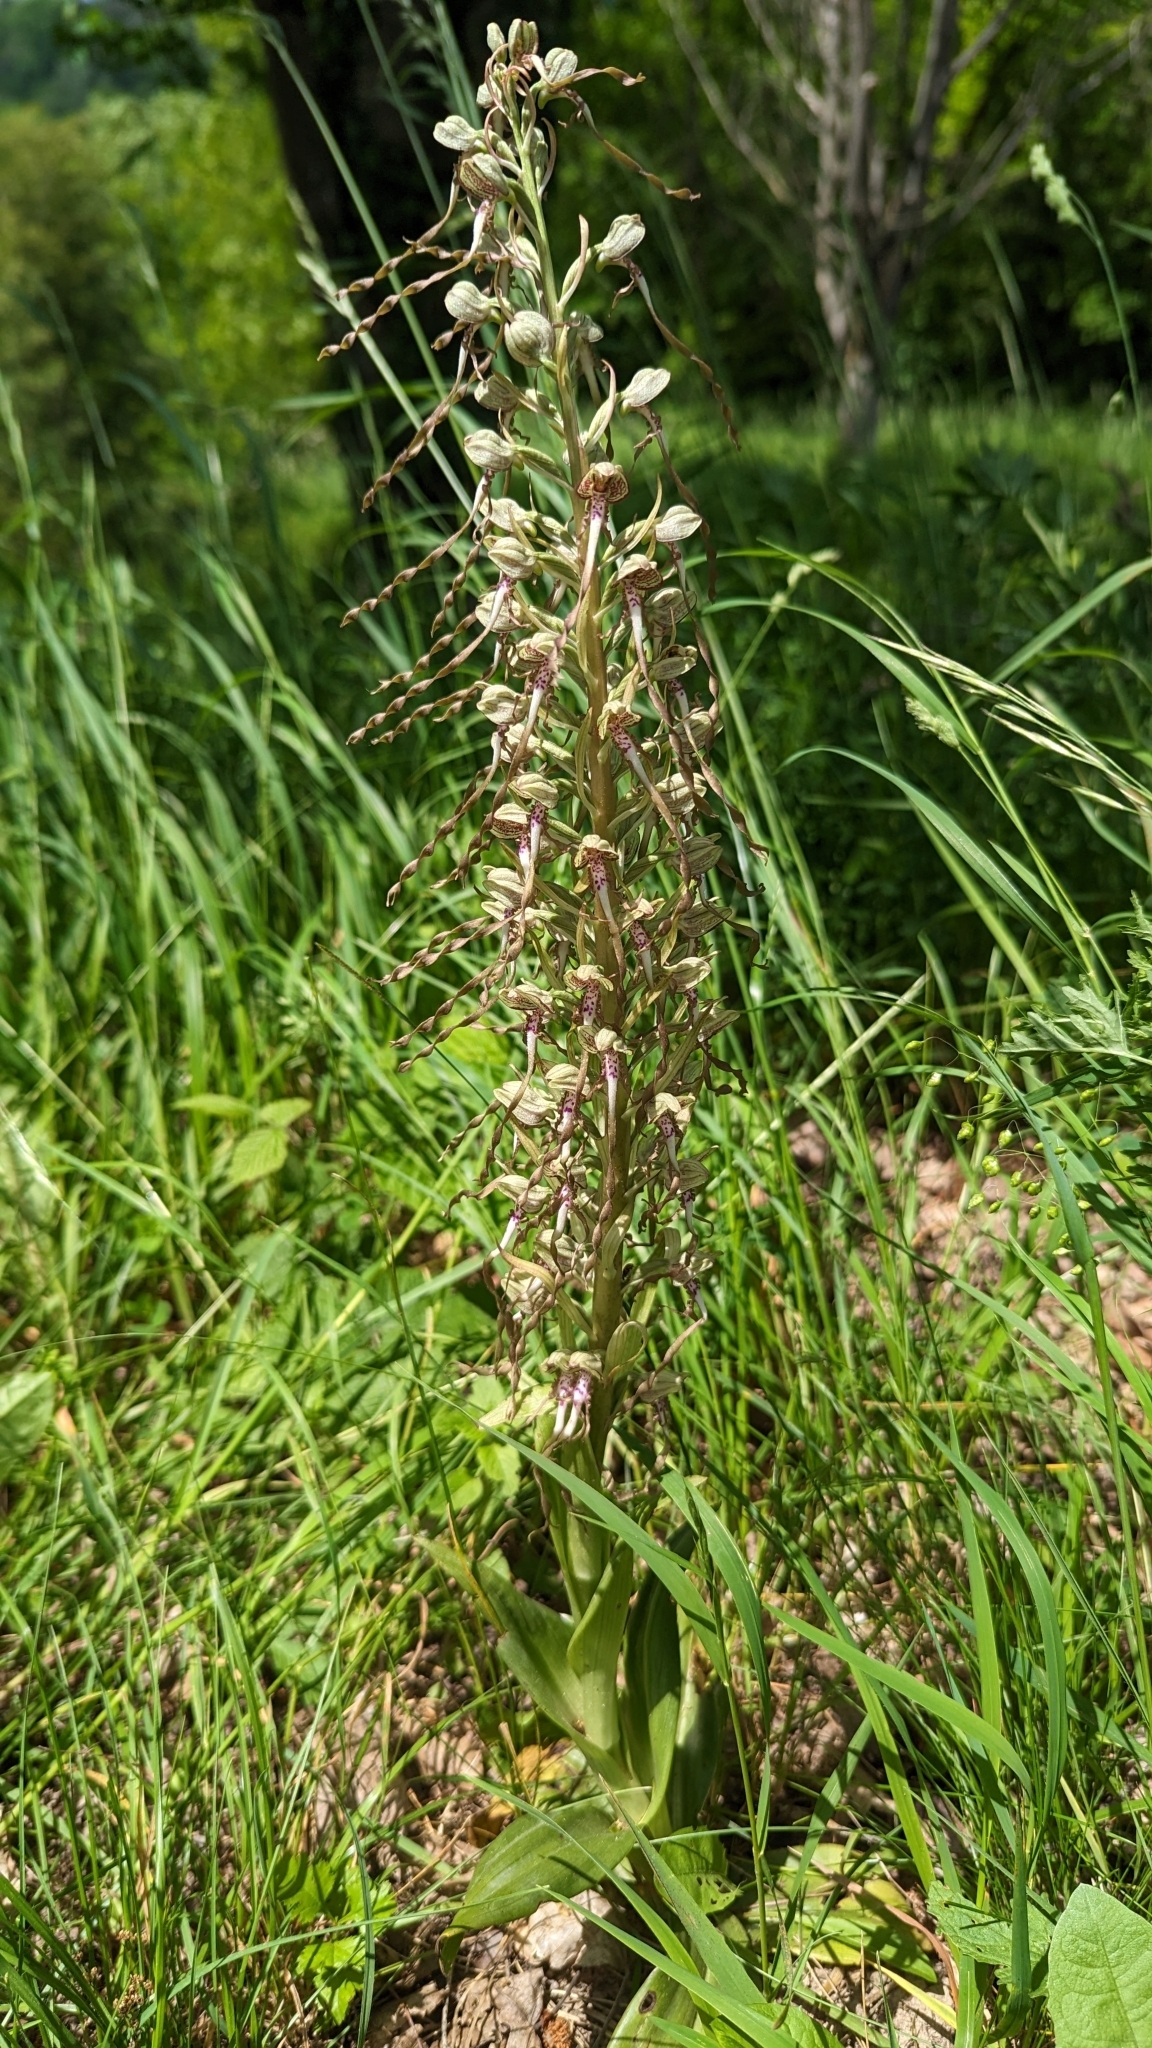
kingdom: Plantae
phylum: Tracheophyta
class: Liliopsida
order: Asparagales
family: Orchidaceae
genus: Himantoglossum
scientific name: Himantoglossum hircinum
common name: Lizard orchid
